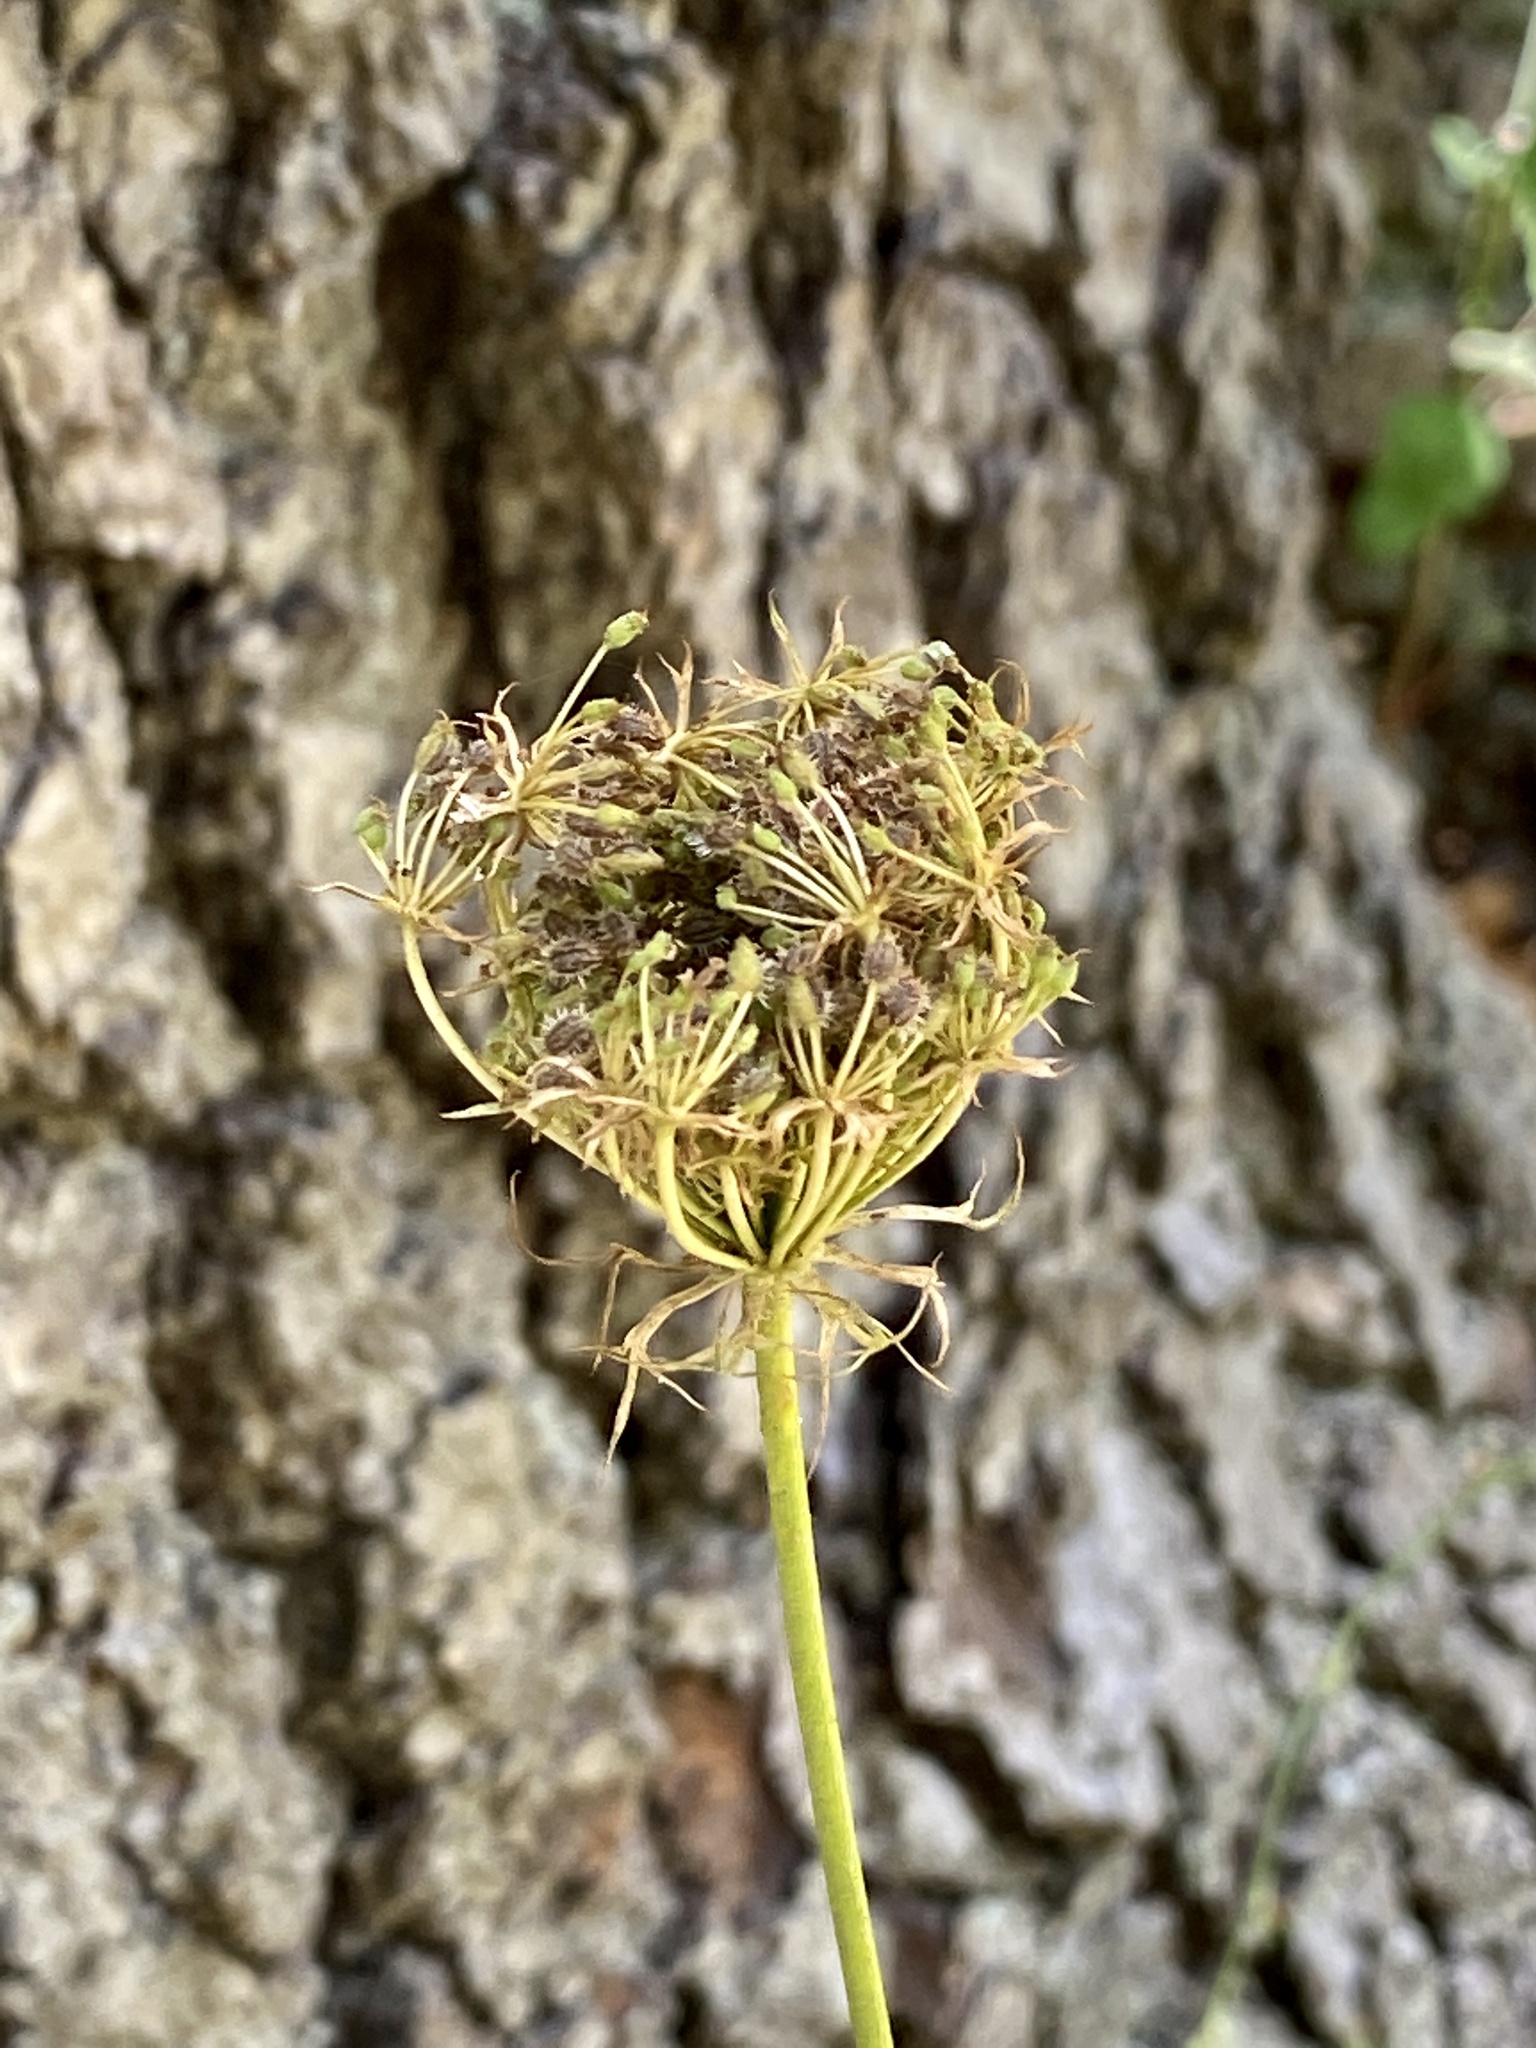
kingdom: Plantae
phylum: Tracheophyta
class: Magnoliopsida
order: Apiales
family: Apiaceae
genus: Daucus
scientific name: Daucus carota
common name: Wild carrot
